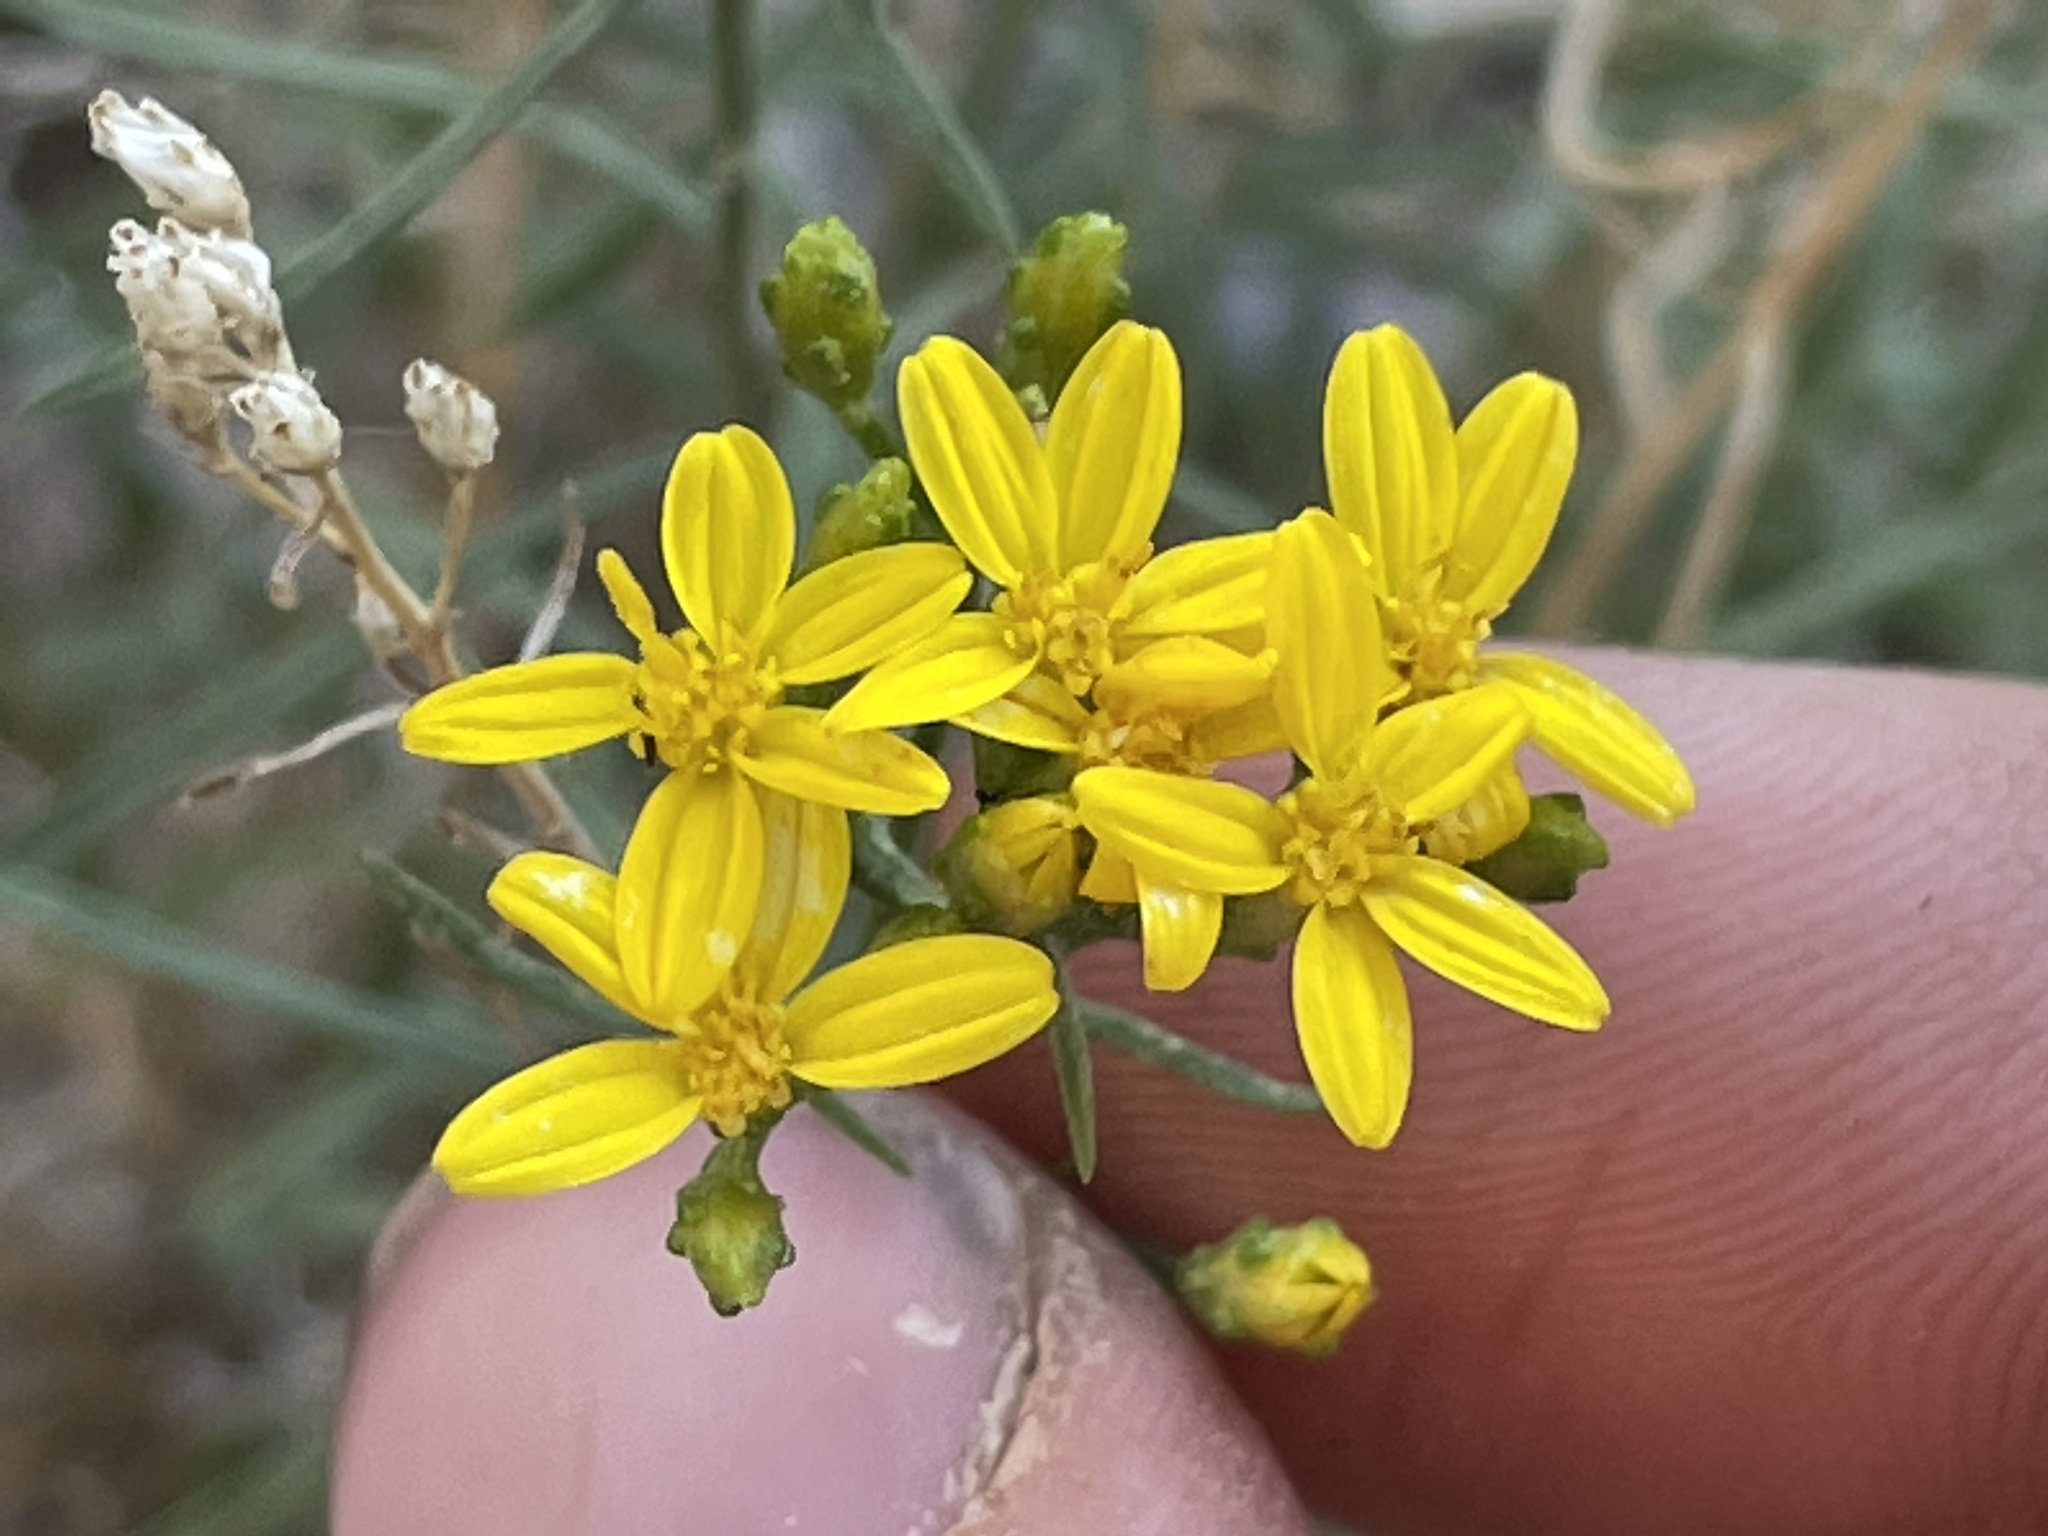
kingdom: Plantae
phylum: Tracheophyta
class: Magnoliopsida
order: Asterales
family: Asteraceae
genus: Gutierrezia
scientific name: Gutierrezia sarothrae
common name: Broom snakeweed
